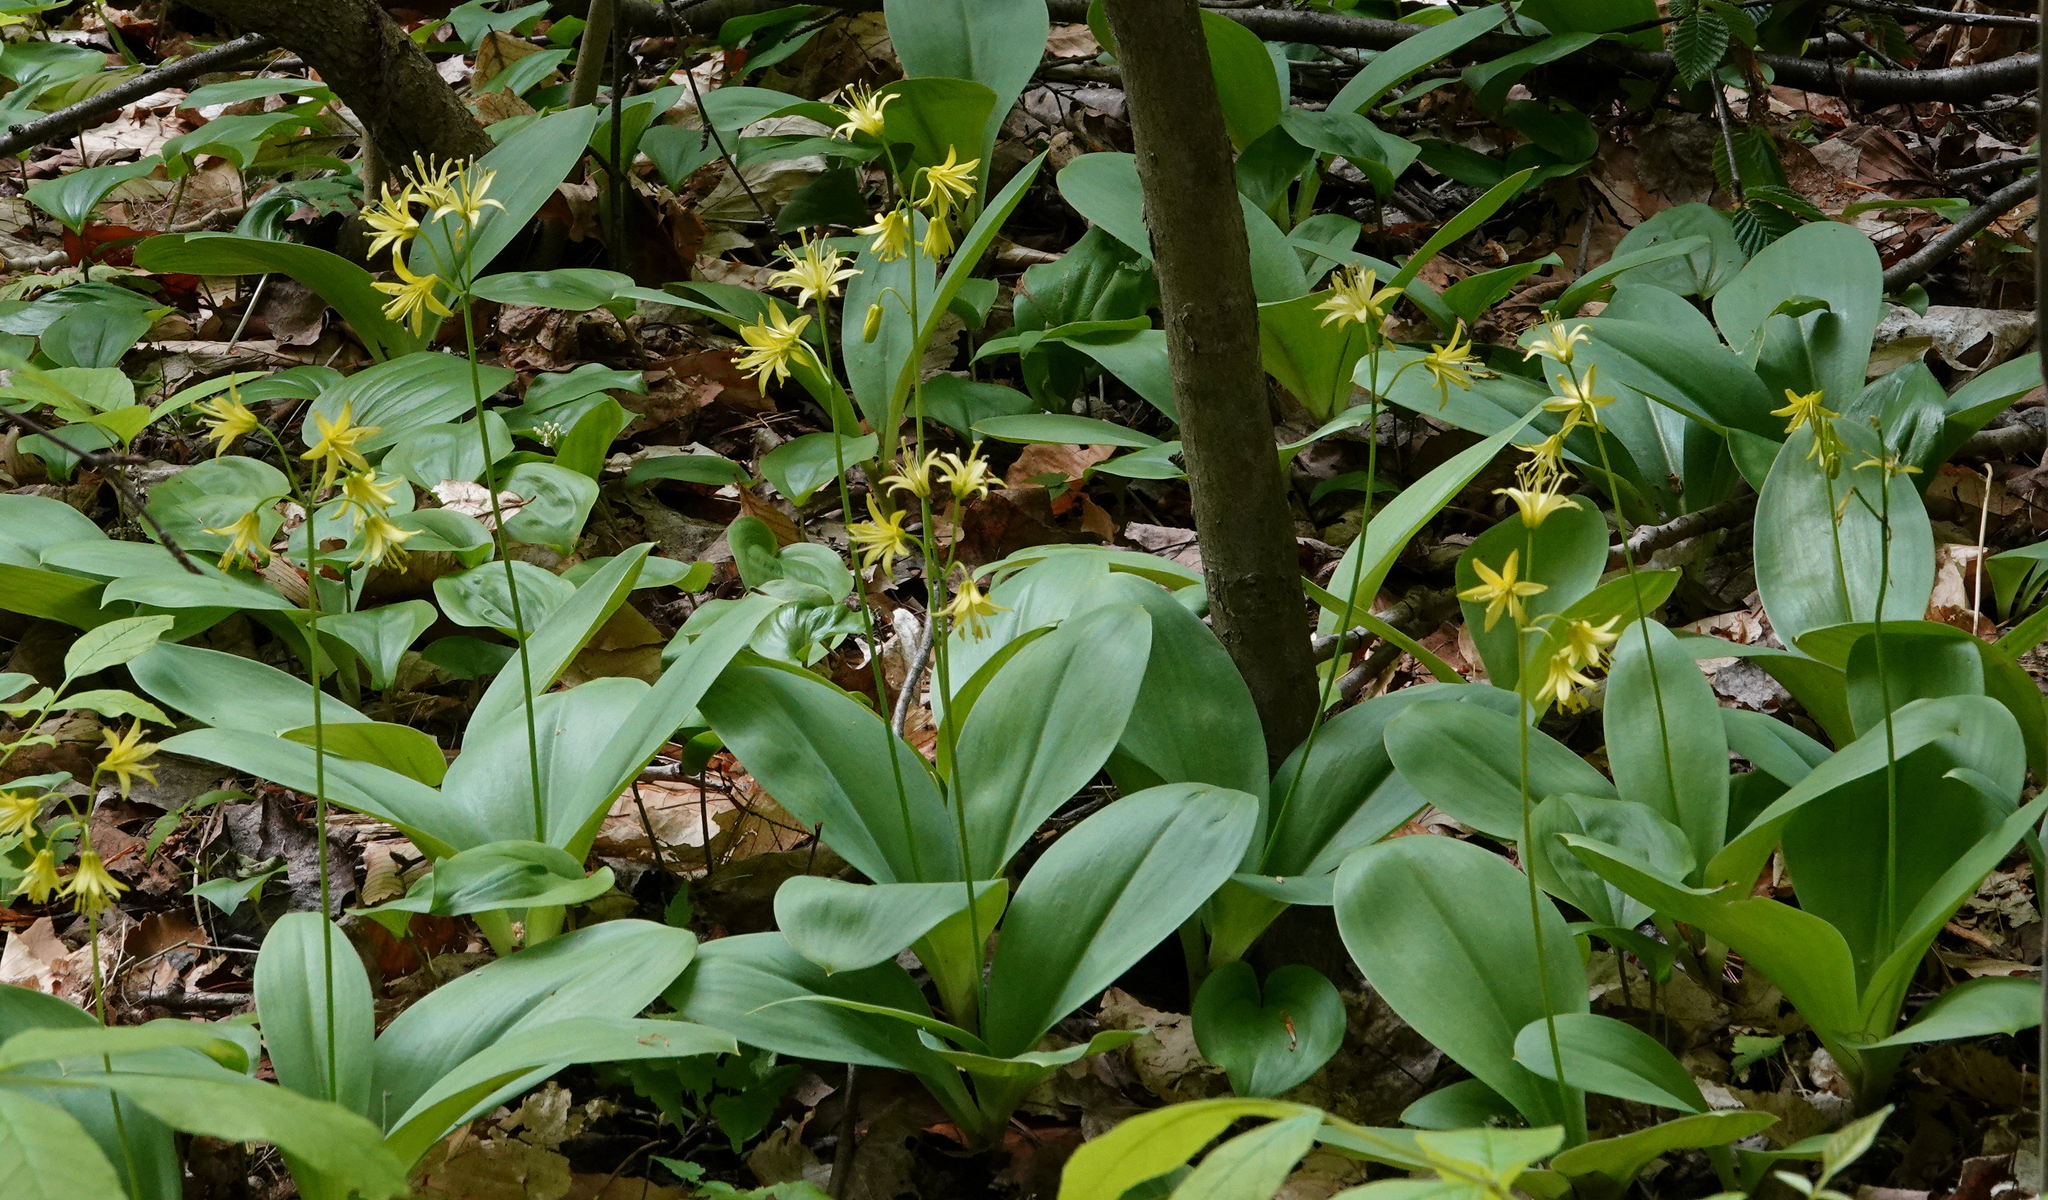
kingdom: Plantae
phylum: Tracheophyta
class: Liliopsida
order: Liliales
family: Liliaceae
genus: Clintonia
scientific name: Clintonia borealis
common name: Yellow clintonia
